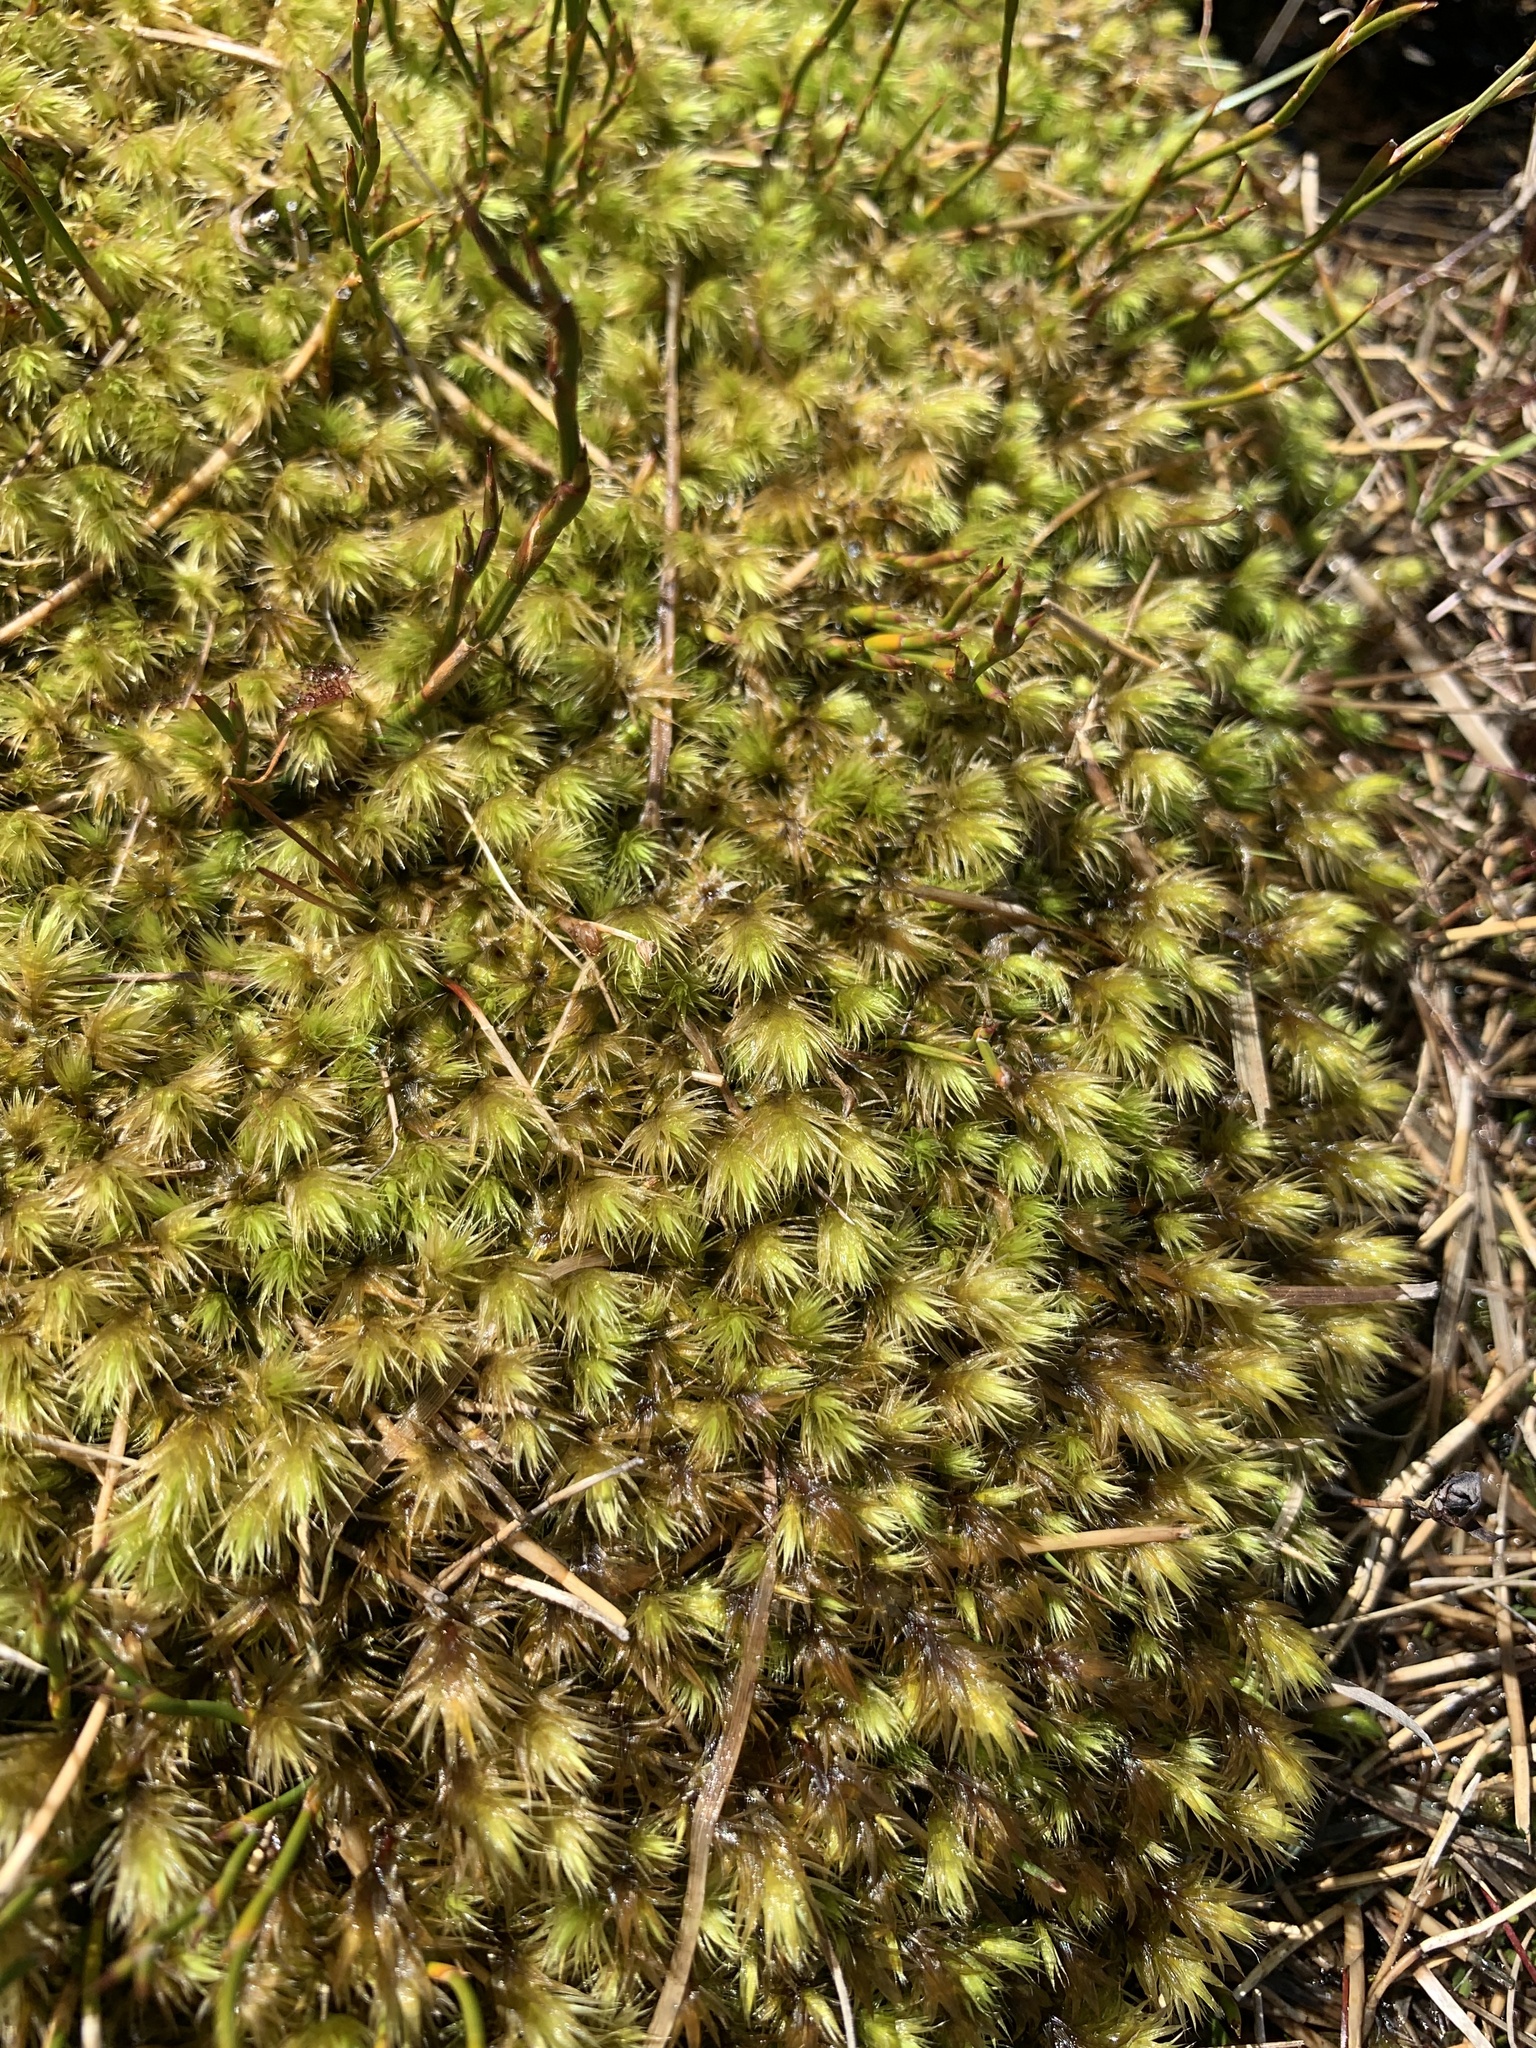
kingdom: Plantae
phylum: Bryophyta
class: Bryopsida
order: Bartramiales
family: Bartramiaceae
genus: Breutelia
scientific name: Breutelia pendula
